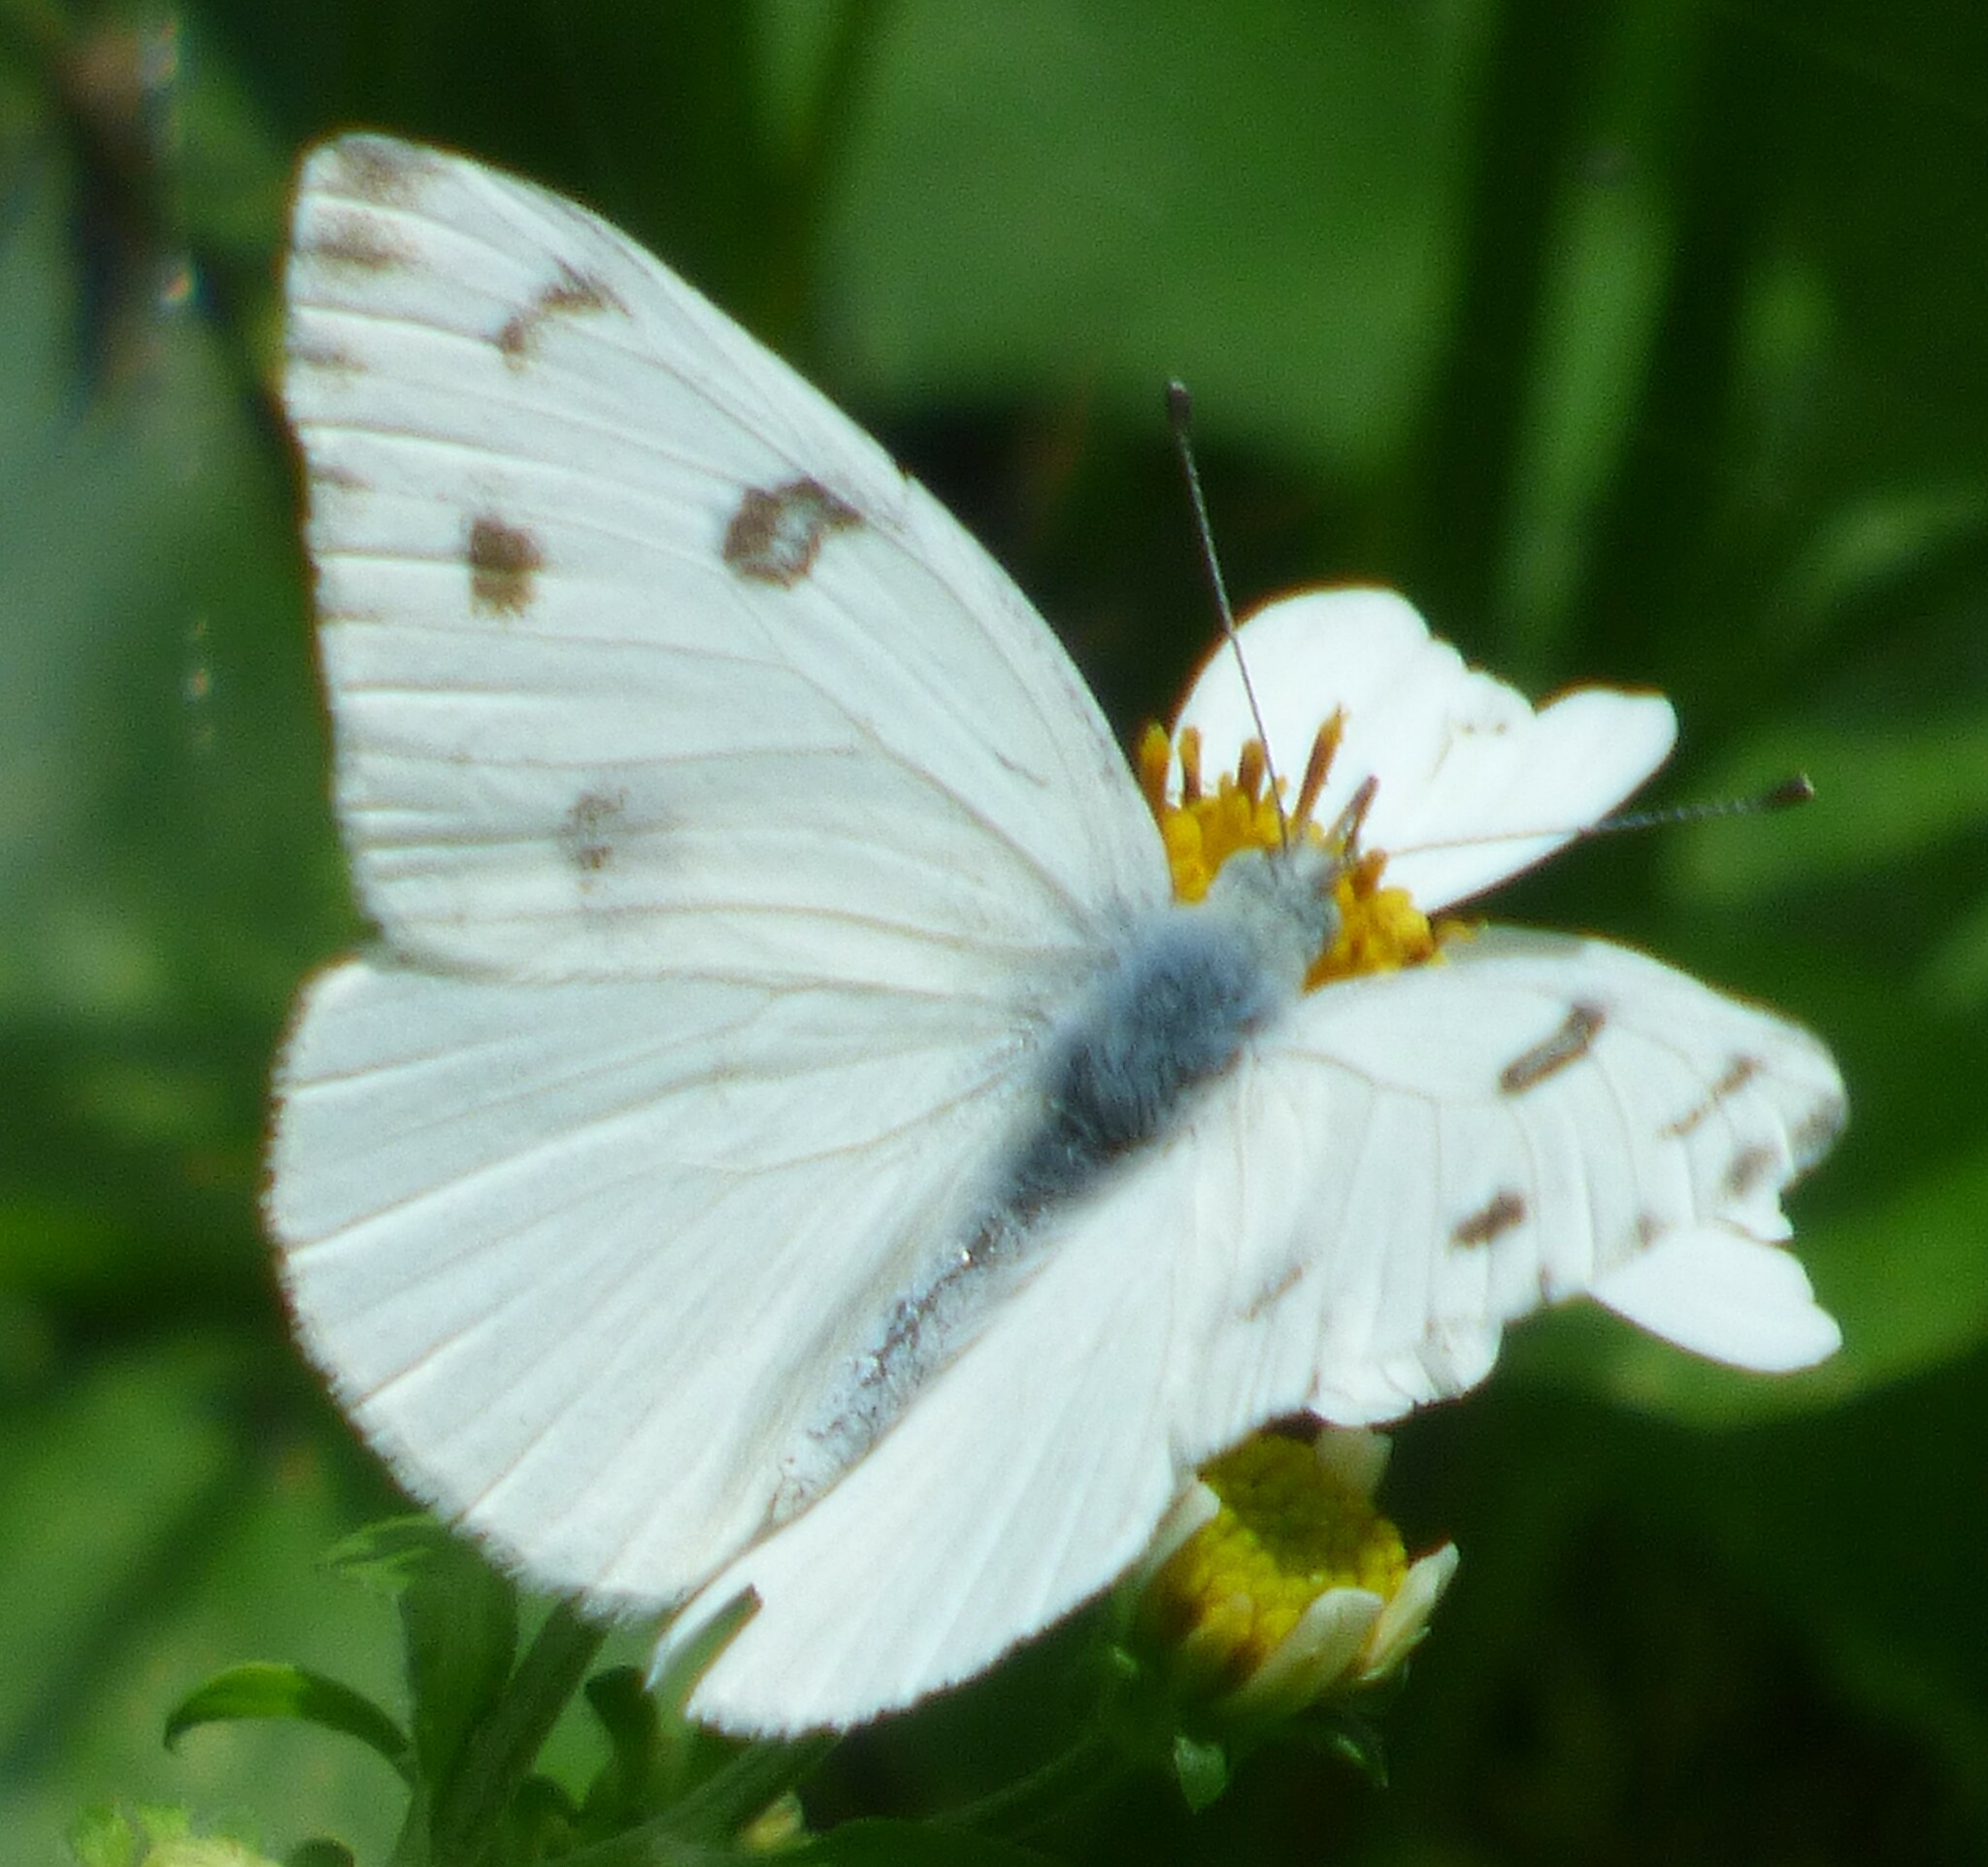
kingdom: Animalia
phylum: Arthropoda
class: Insecta
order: Lepidoptera
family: Pieridae
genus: Pontia
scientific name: Pontia protodice
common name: Checkered white
